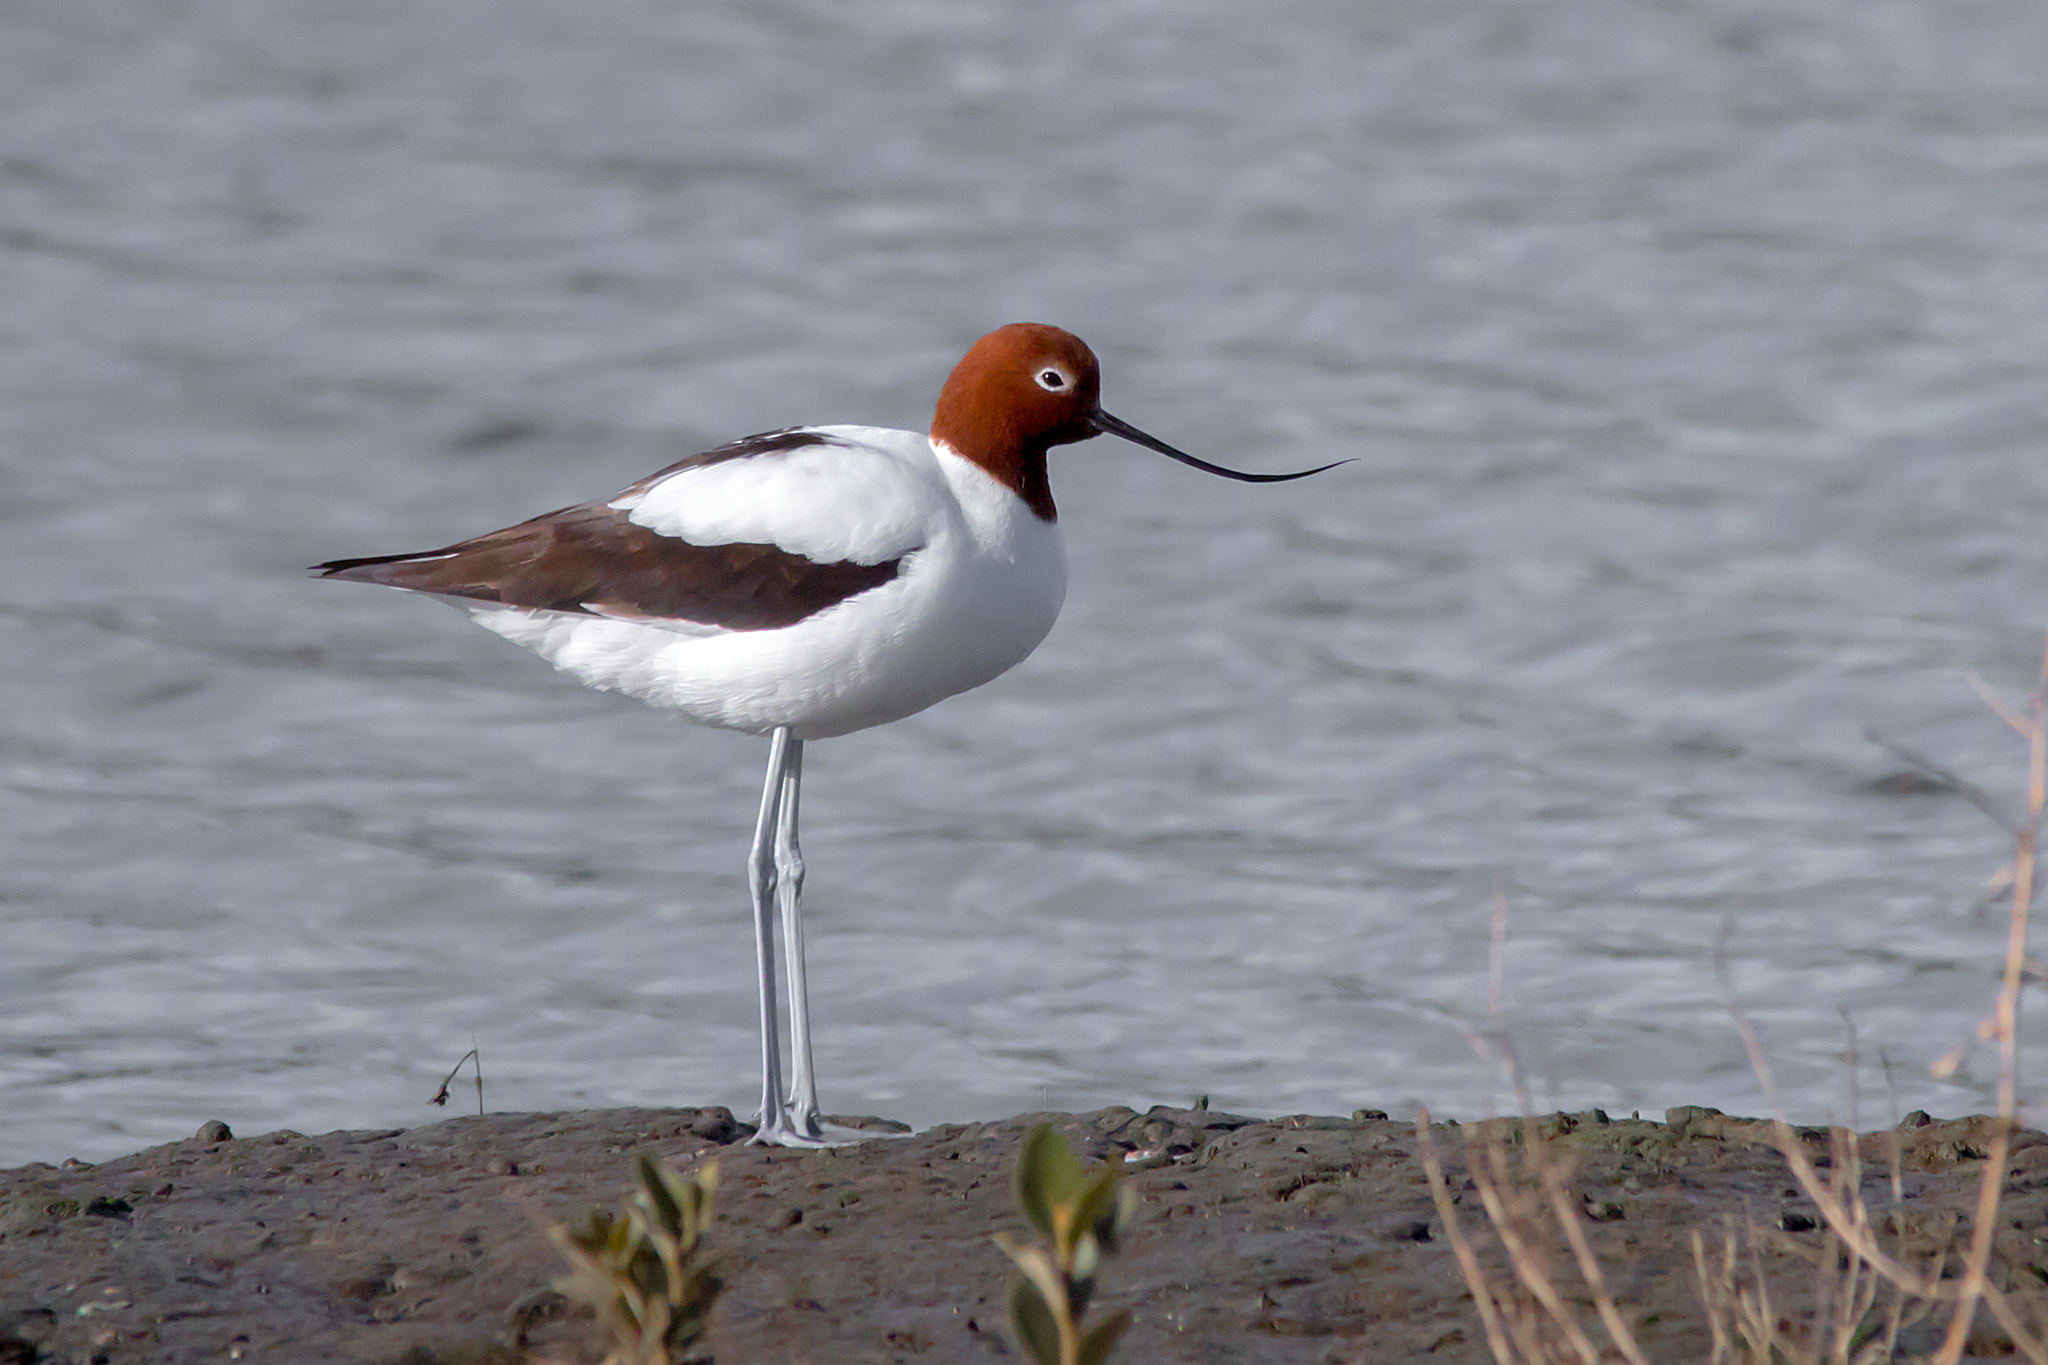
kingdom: Animalia
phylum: Chordata
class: Aves
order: Charadriiformes
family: Recurvirostridae
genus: Recurvirostra
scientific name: Recurvirostra novaehollandiae
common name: Red-necked avocet
